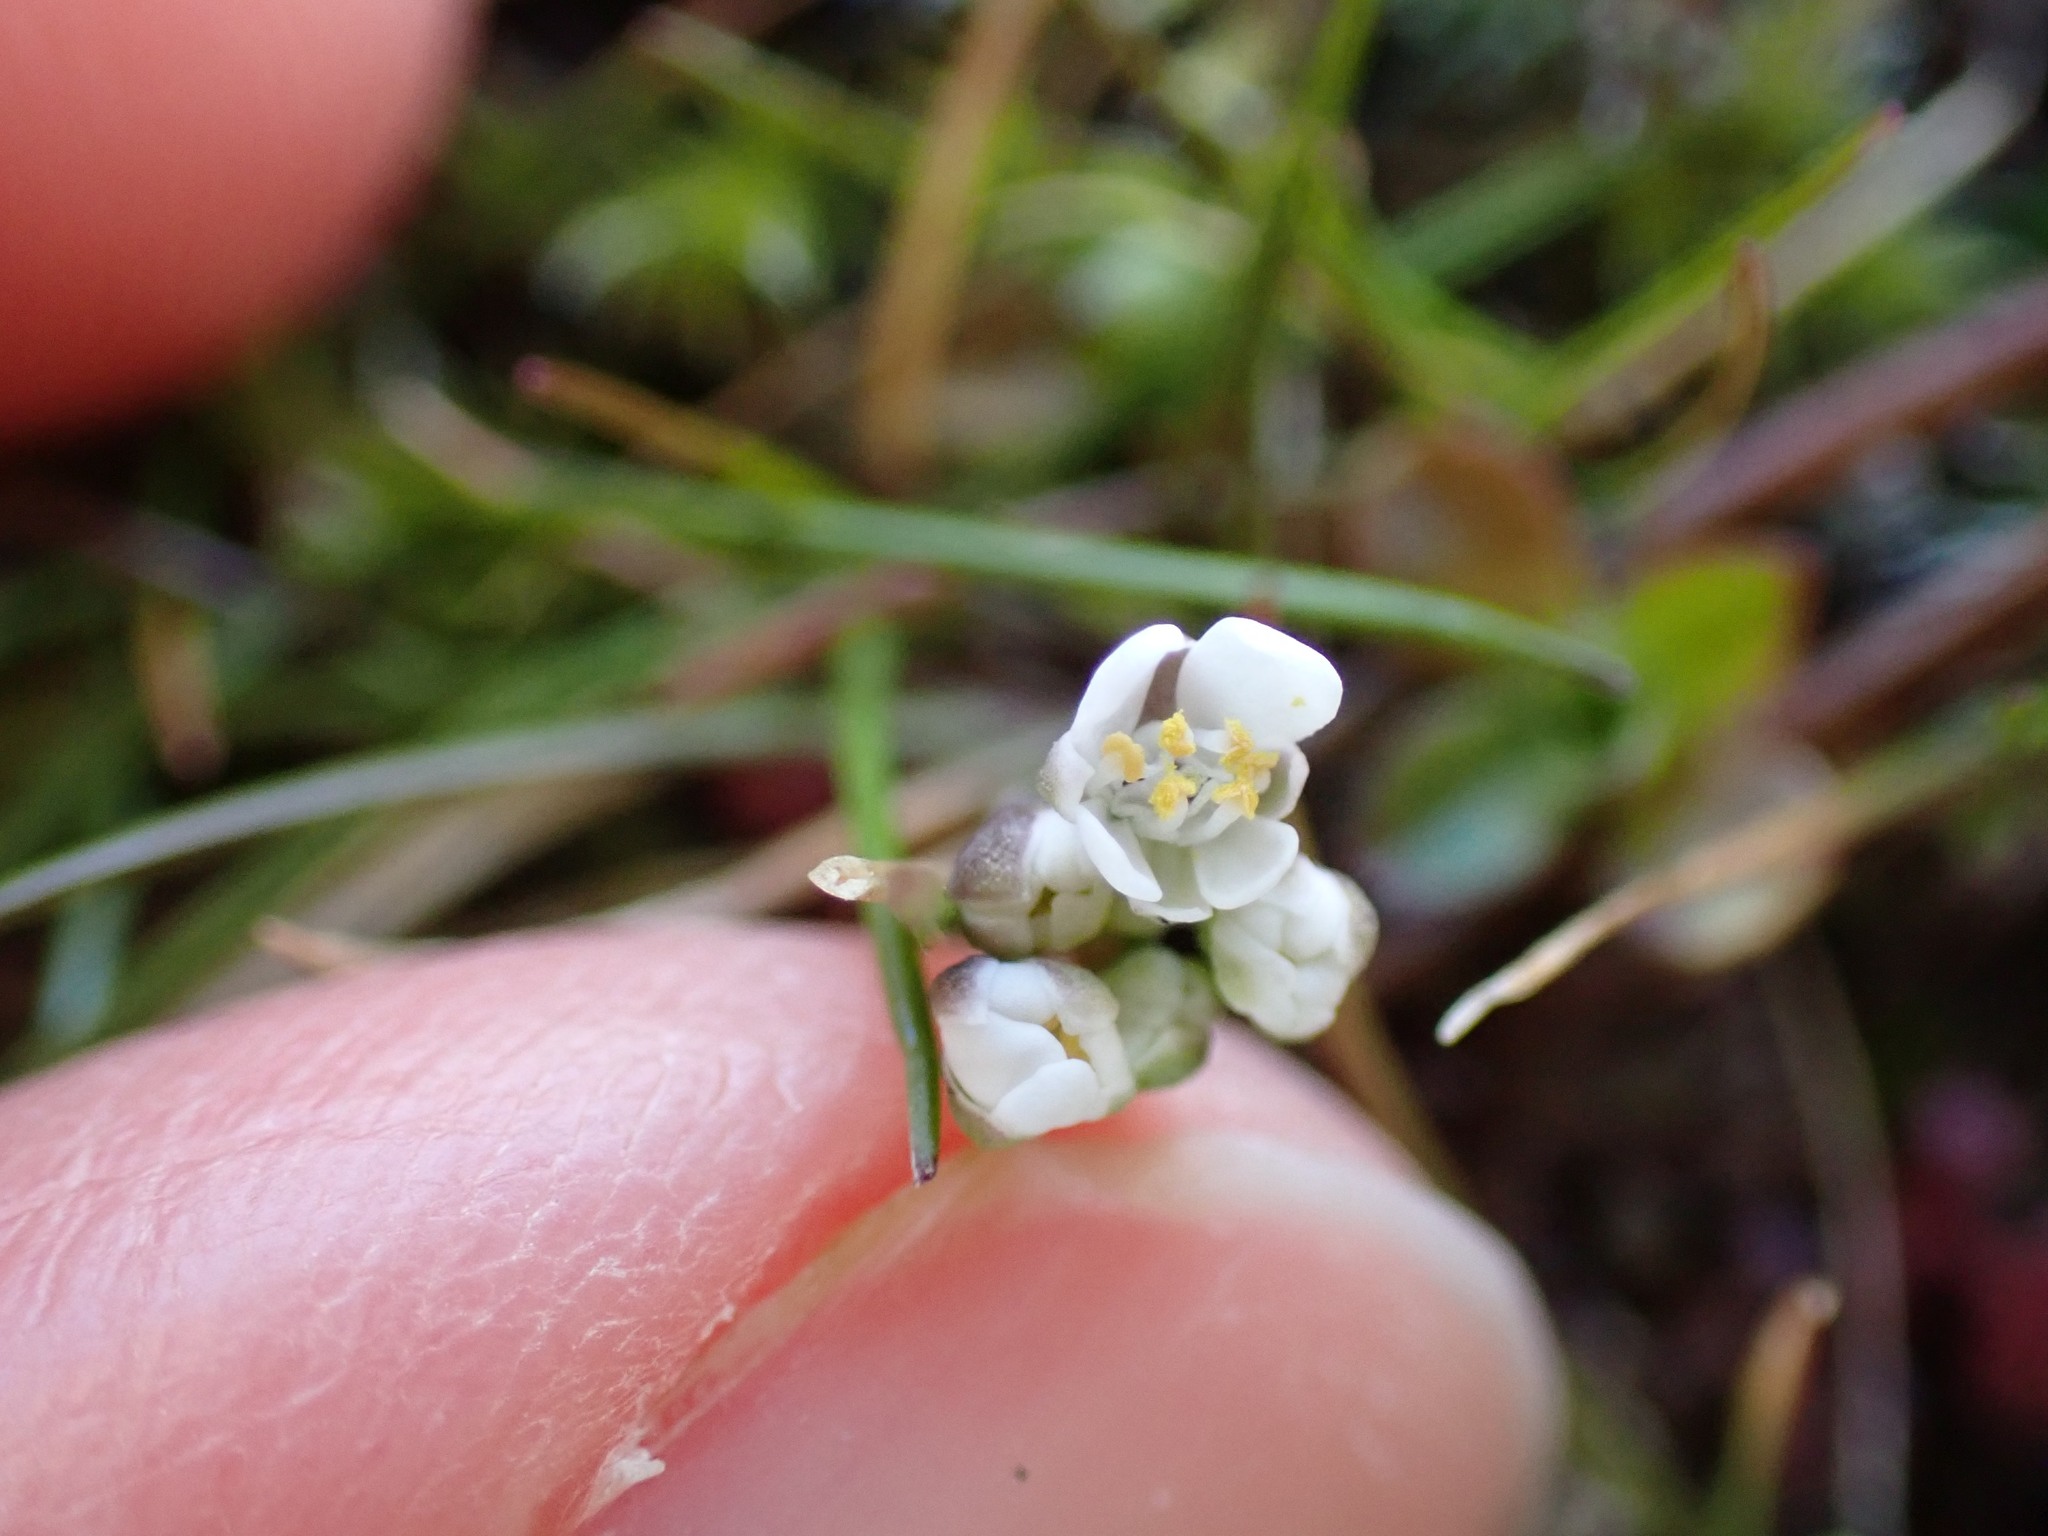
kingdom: Plantae
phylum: Tracheophyta
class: Magnoliopsida
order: Brassicales
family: Brassicaceae
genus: Teesdalia
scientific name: Teesdalia nudicaulis
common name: Shepherd's cress
